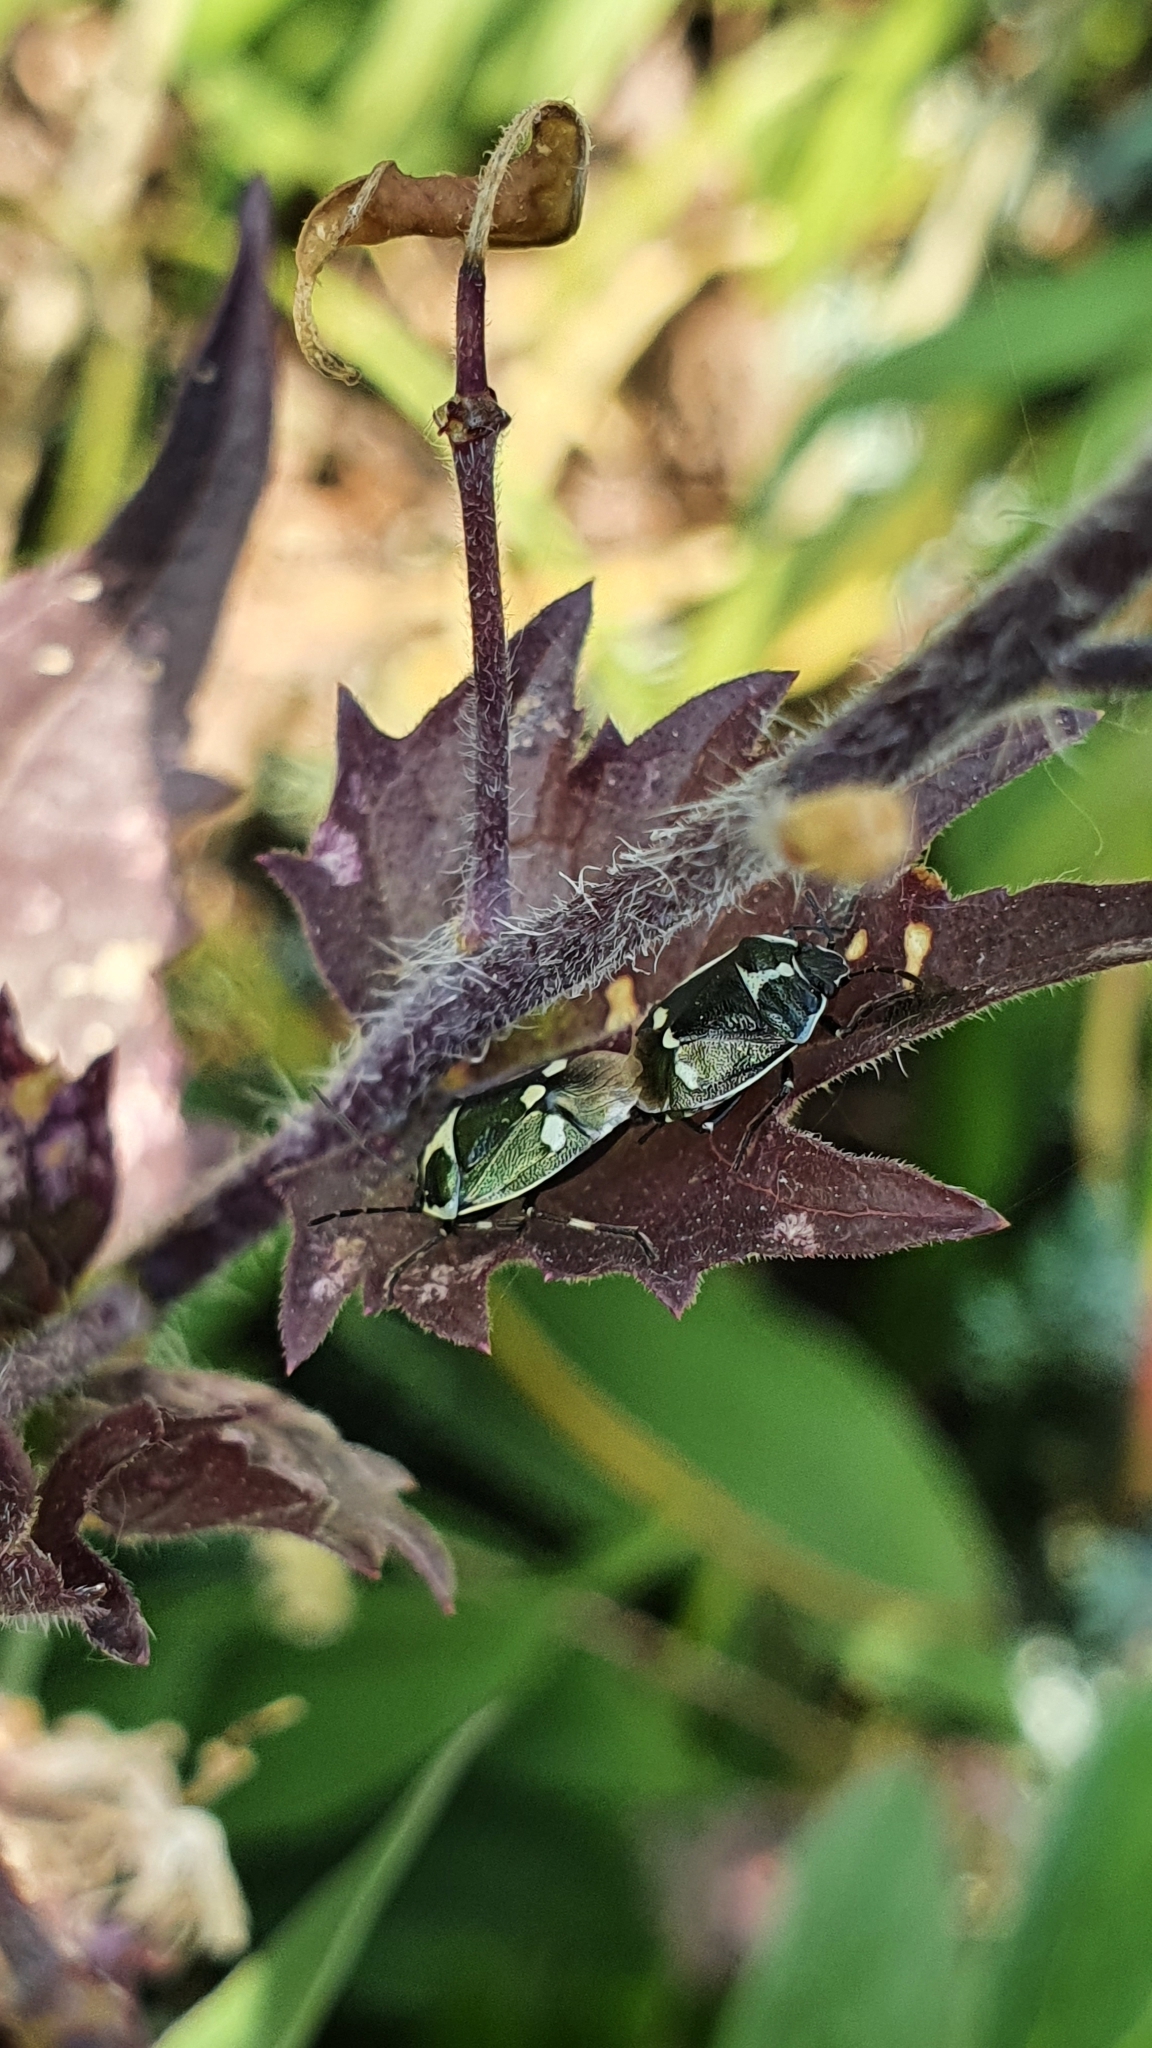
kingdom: Animalia
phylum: Arthropoda
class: Insecta
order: Hemiptera
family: Pentatomidae
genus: Eurydema
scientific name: Eurydema oleracea
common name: Cabbage bug
